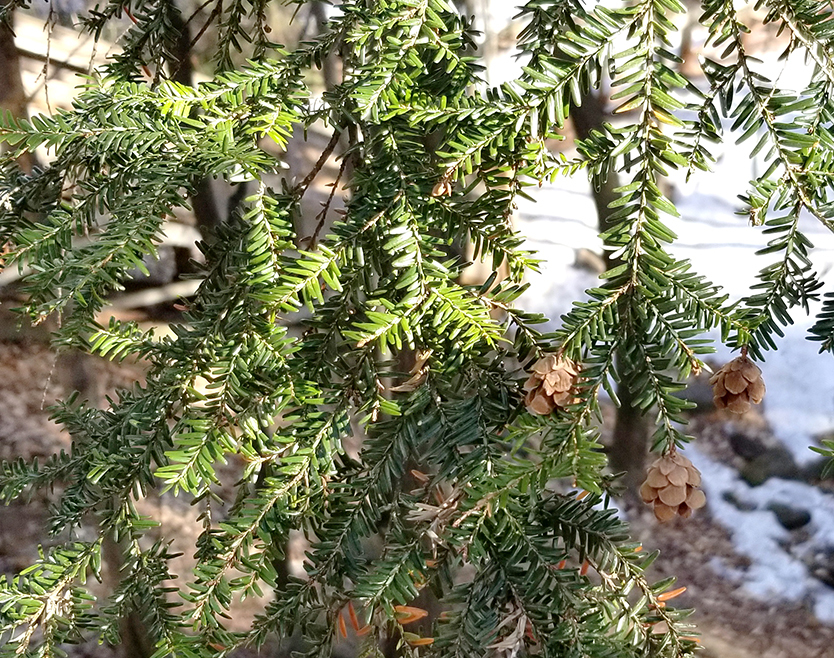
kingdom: Plantae
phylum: Tracheophyta
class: Pinopsida
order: Pinales
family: Pinaceae
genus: Tsuga
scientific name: Tsuga canadensis
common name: Eastern hemlock
